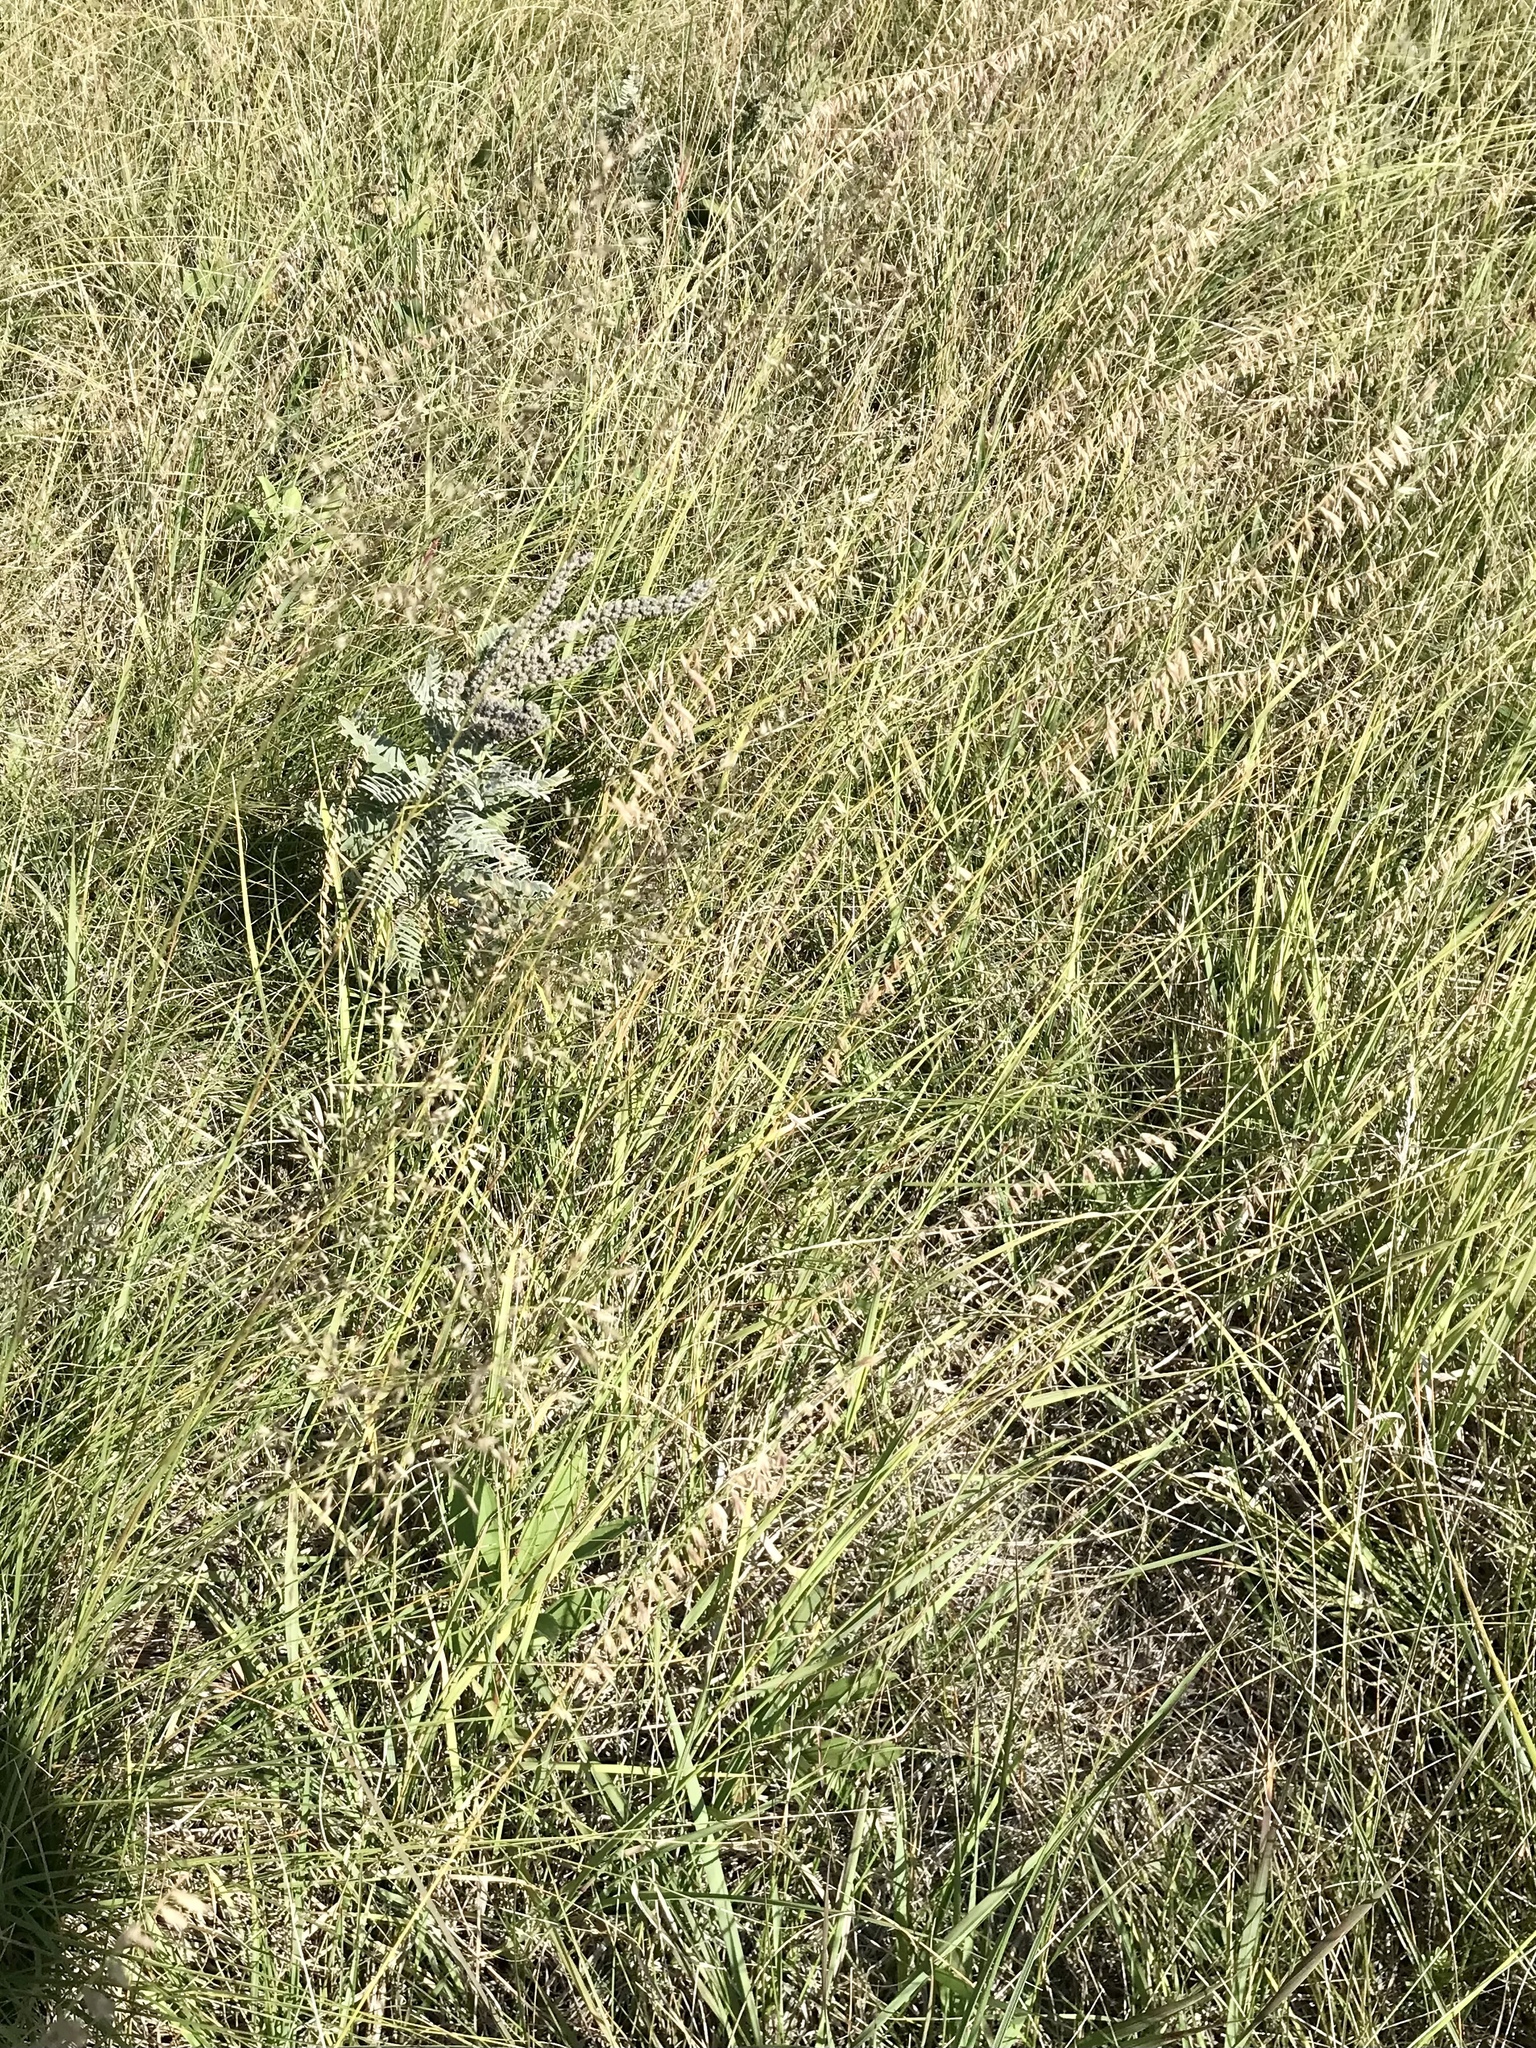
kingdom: Plantae
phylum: Tracheophyta
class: Liliopsida
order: Poales
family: Poaceae
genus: Bouteloua
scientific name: Bouteloua curtipendula
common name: Side-oats grama
